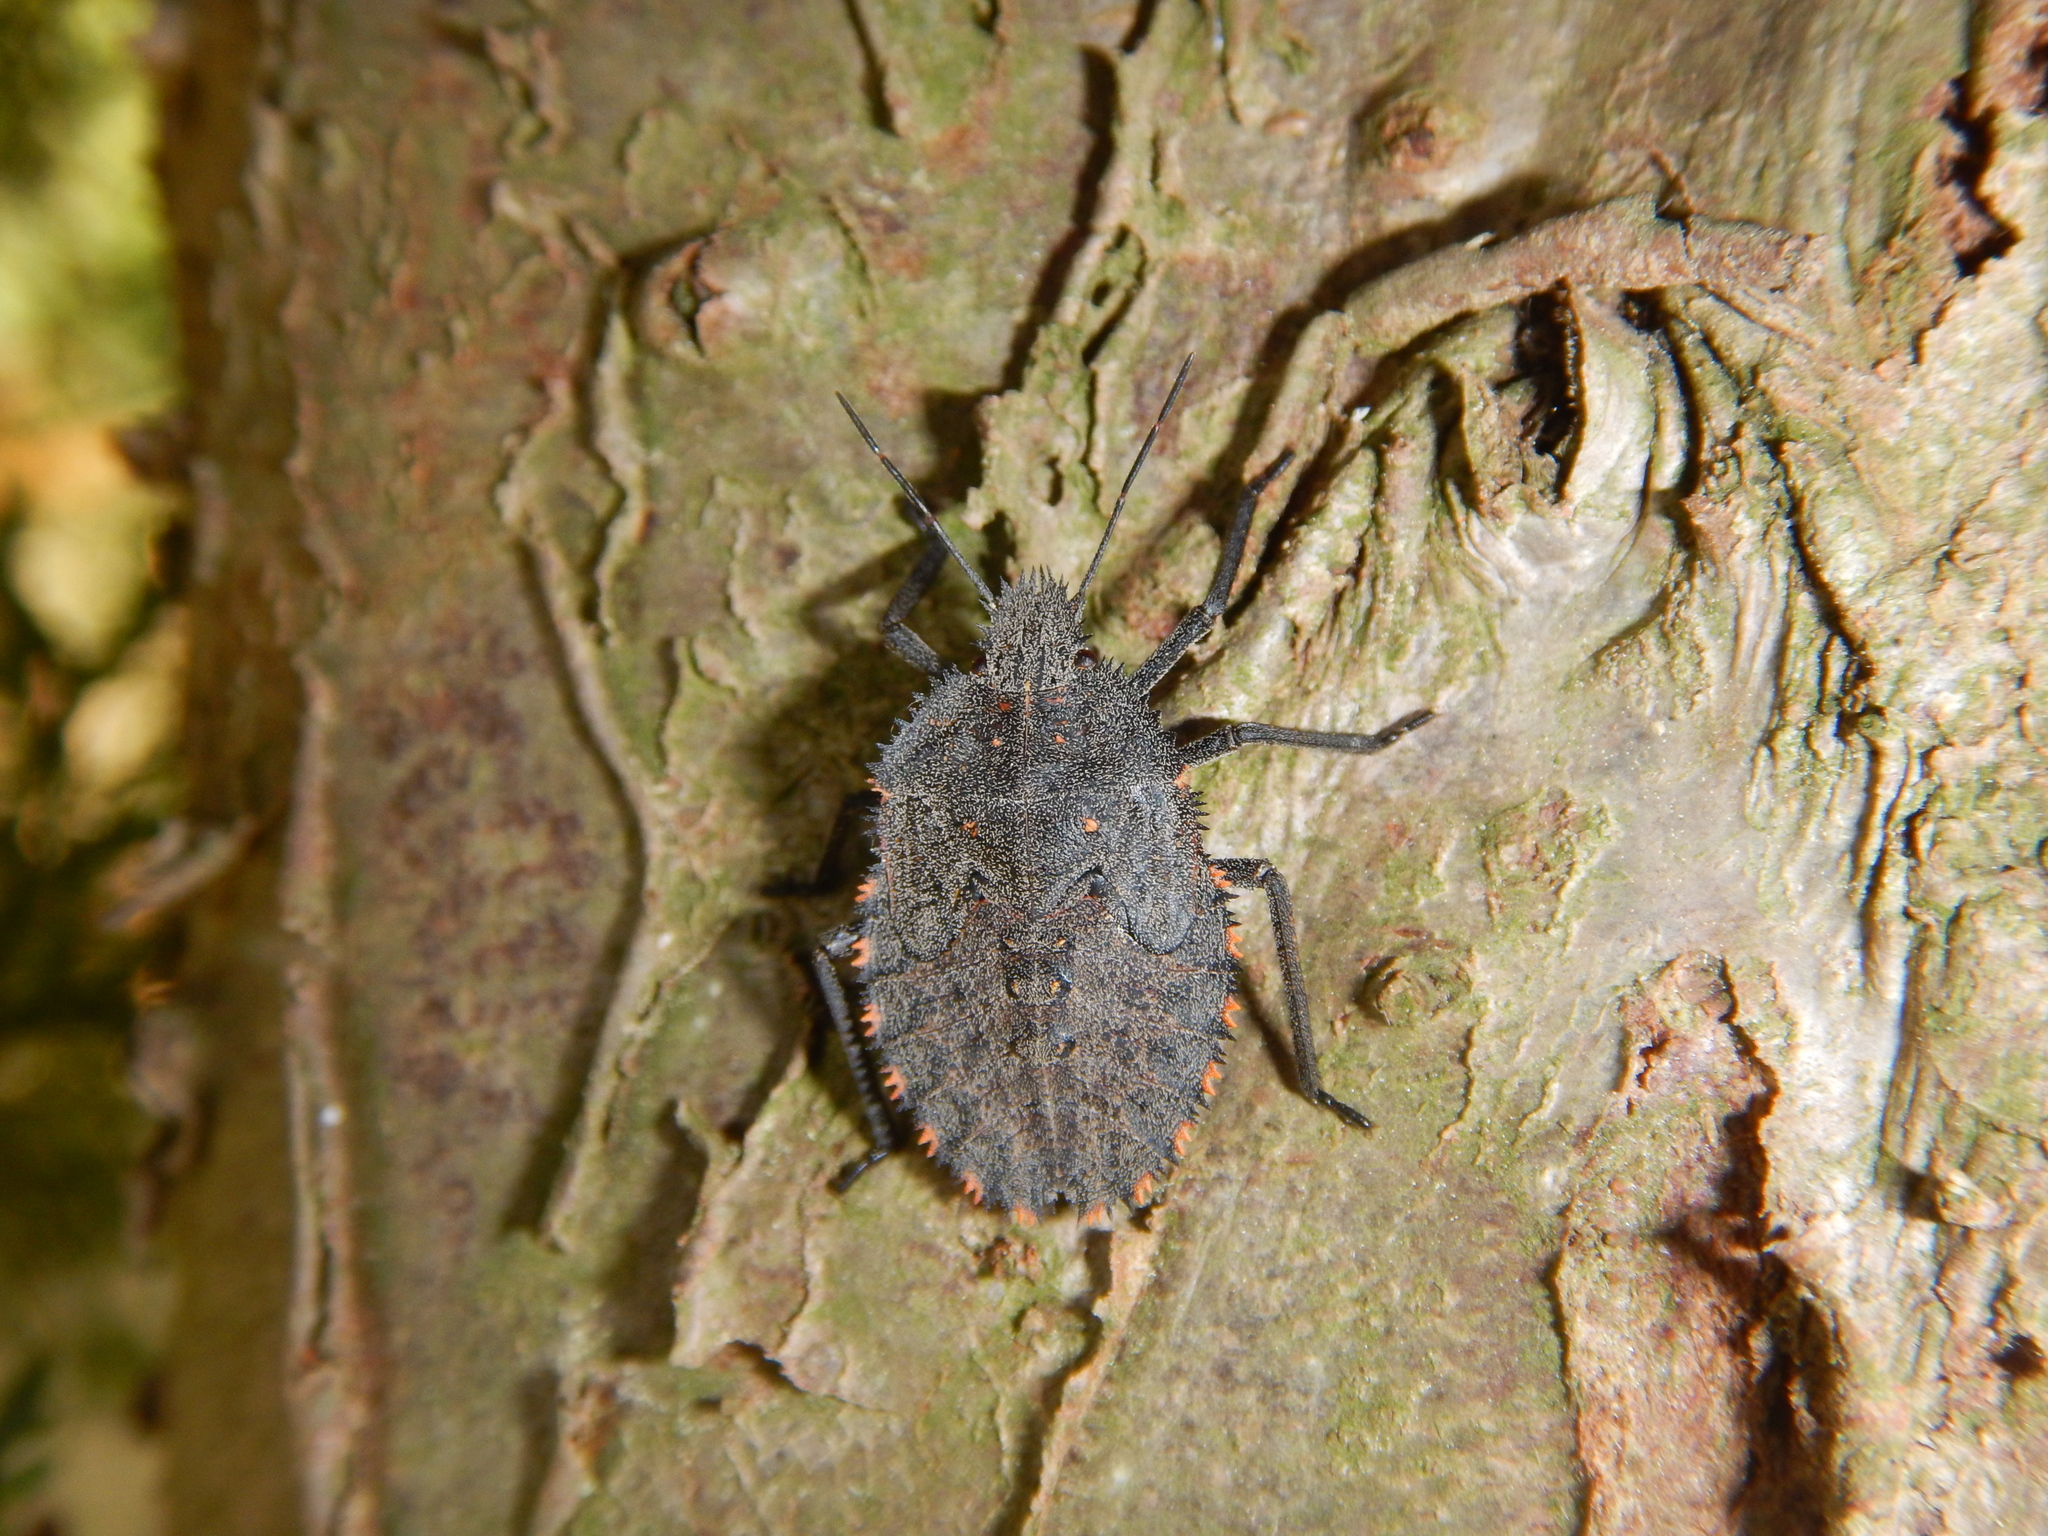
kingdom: Animalia
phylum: Arthropoda
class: Insecta
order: Hemiptera
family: Pentatomidae
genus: Mustha
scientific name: Mustha spinosula
